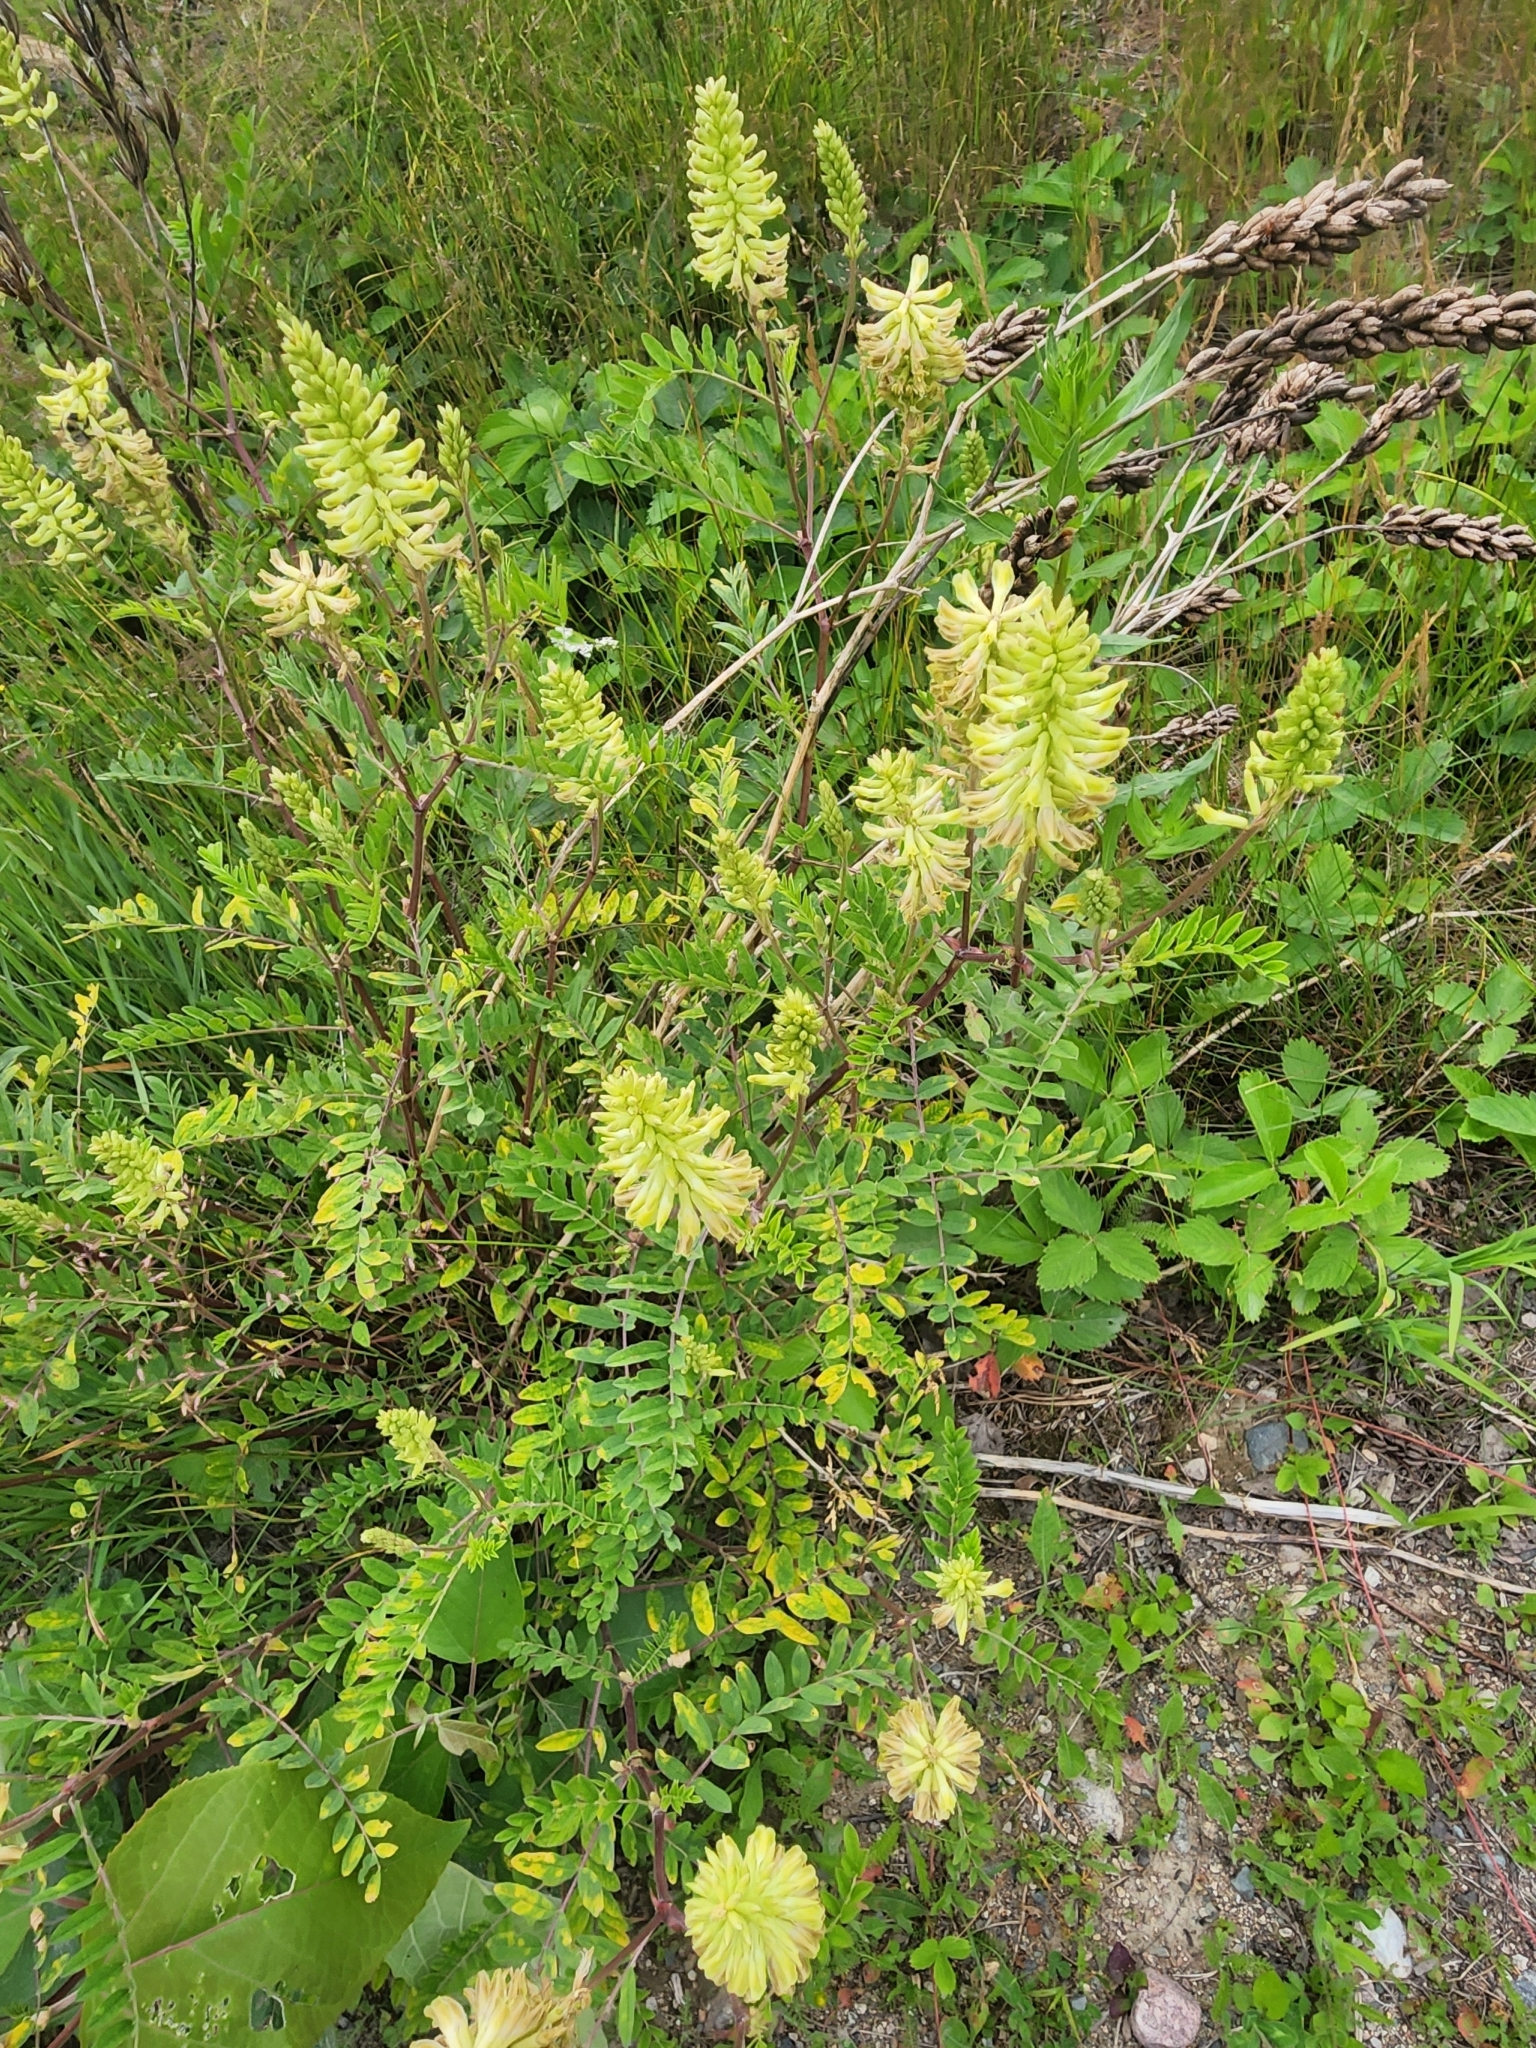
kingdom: Plantae
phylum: Tracheophyta
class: Magnoliopsida
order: Fabales
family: Fabaceae
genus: Astragalus
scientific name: Astragalus canadensis
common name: Canada milk-vetch
